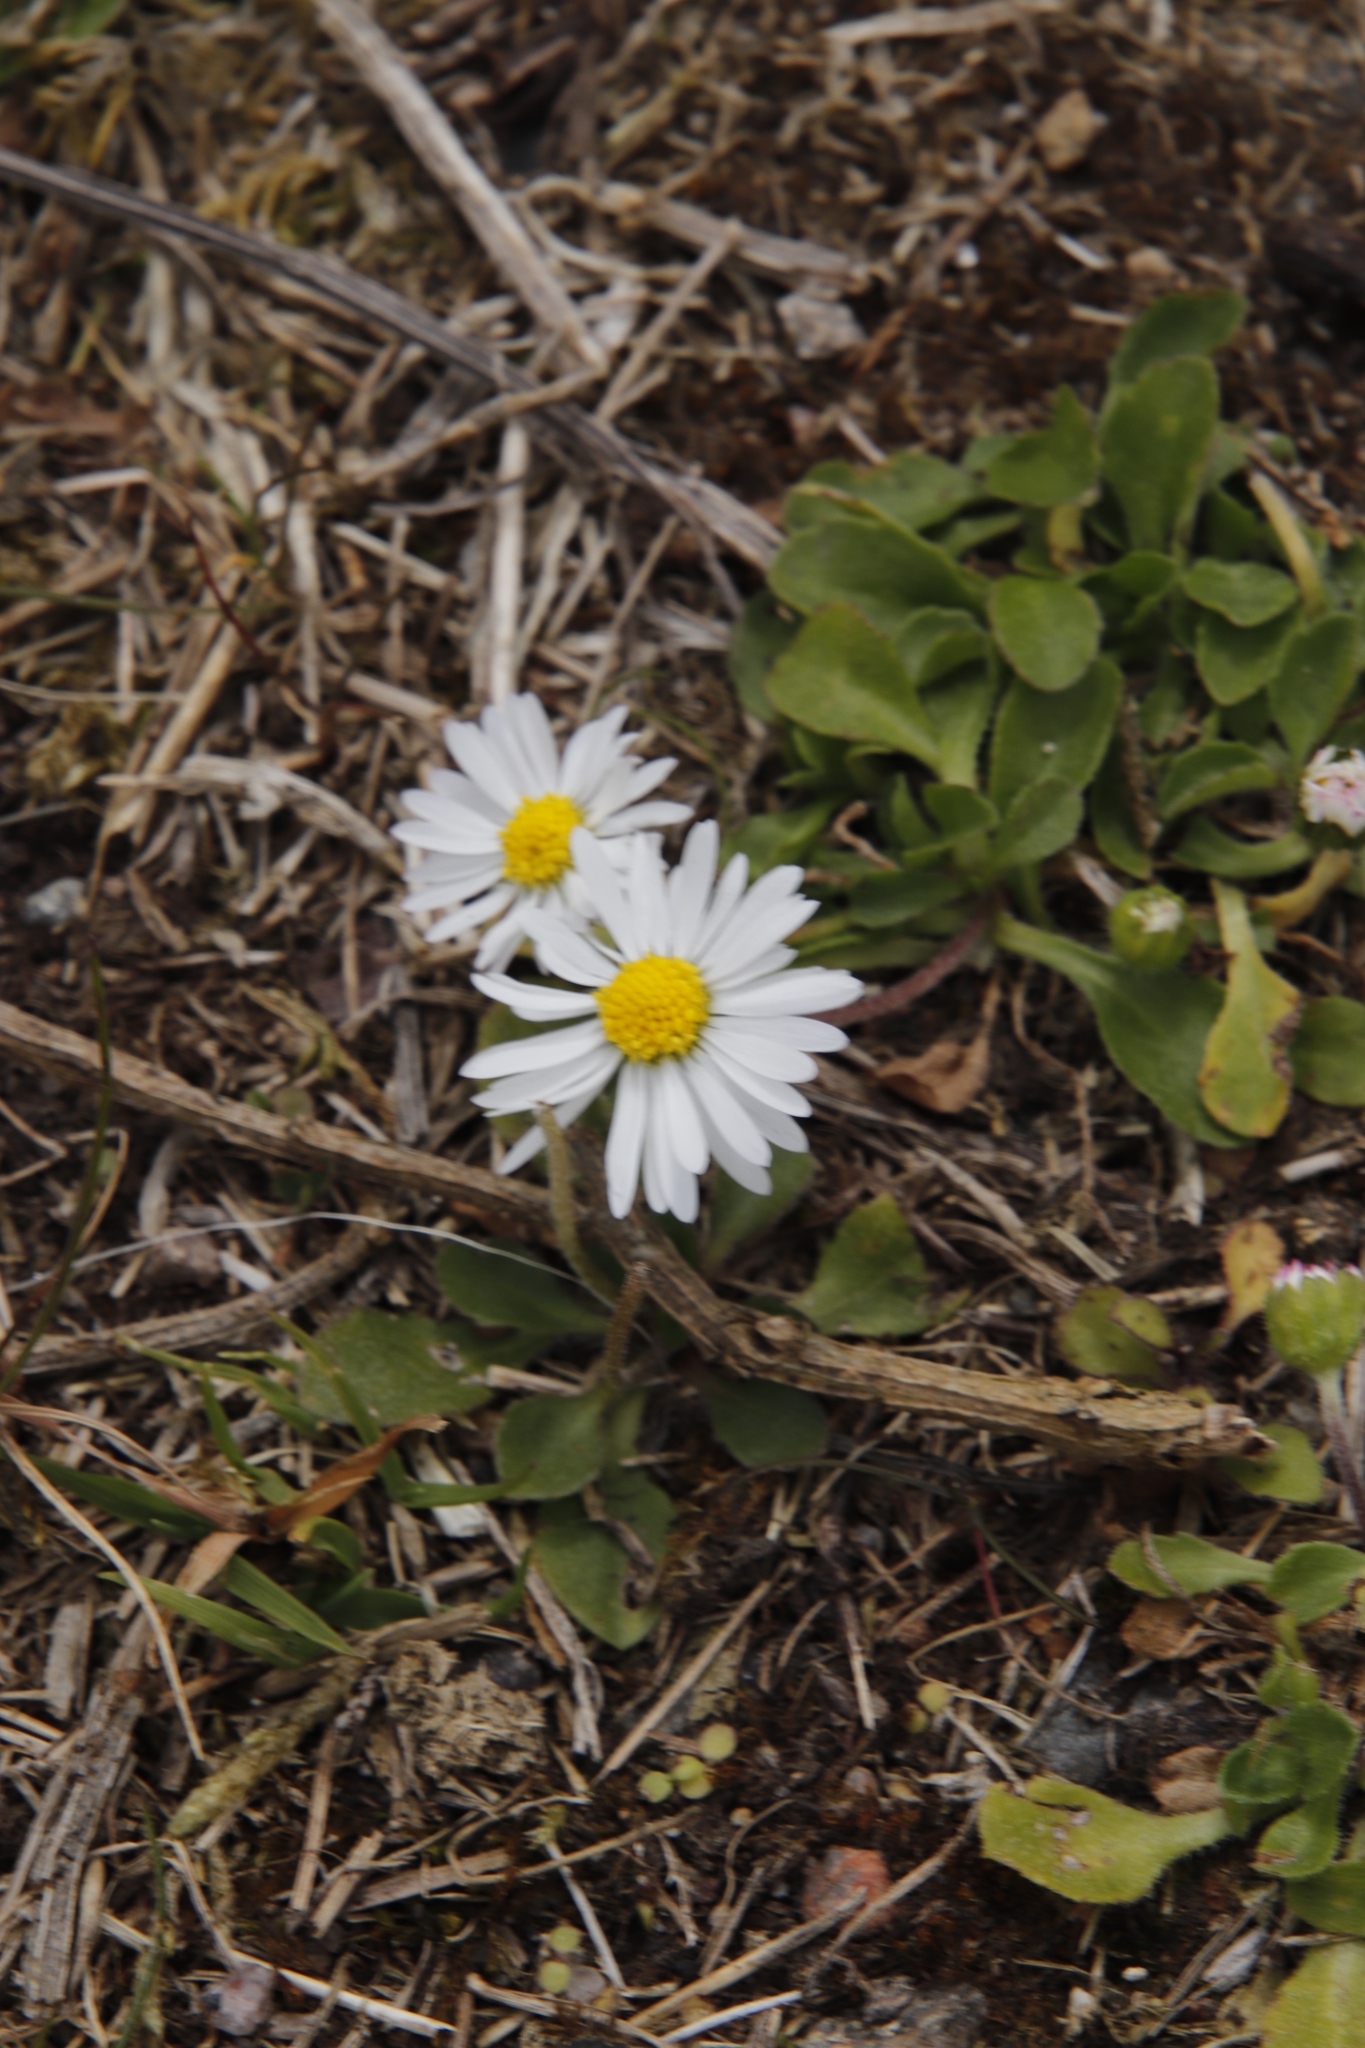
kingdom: Plantae
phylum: Tracheophyta
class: Magnoliopsida
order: Asterales
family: Asteraceae
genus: Bellis
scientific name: Bellis perennis
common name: Lawndaisy
